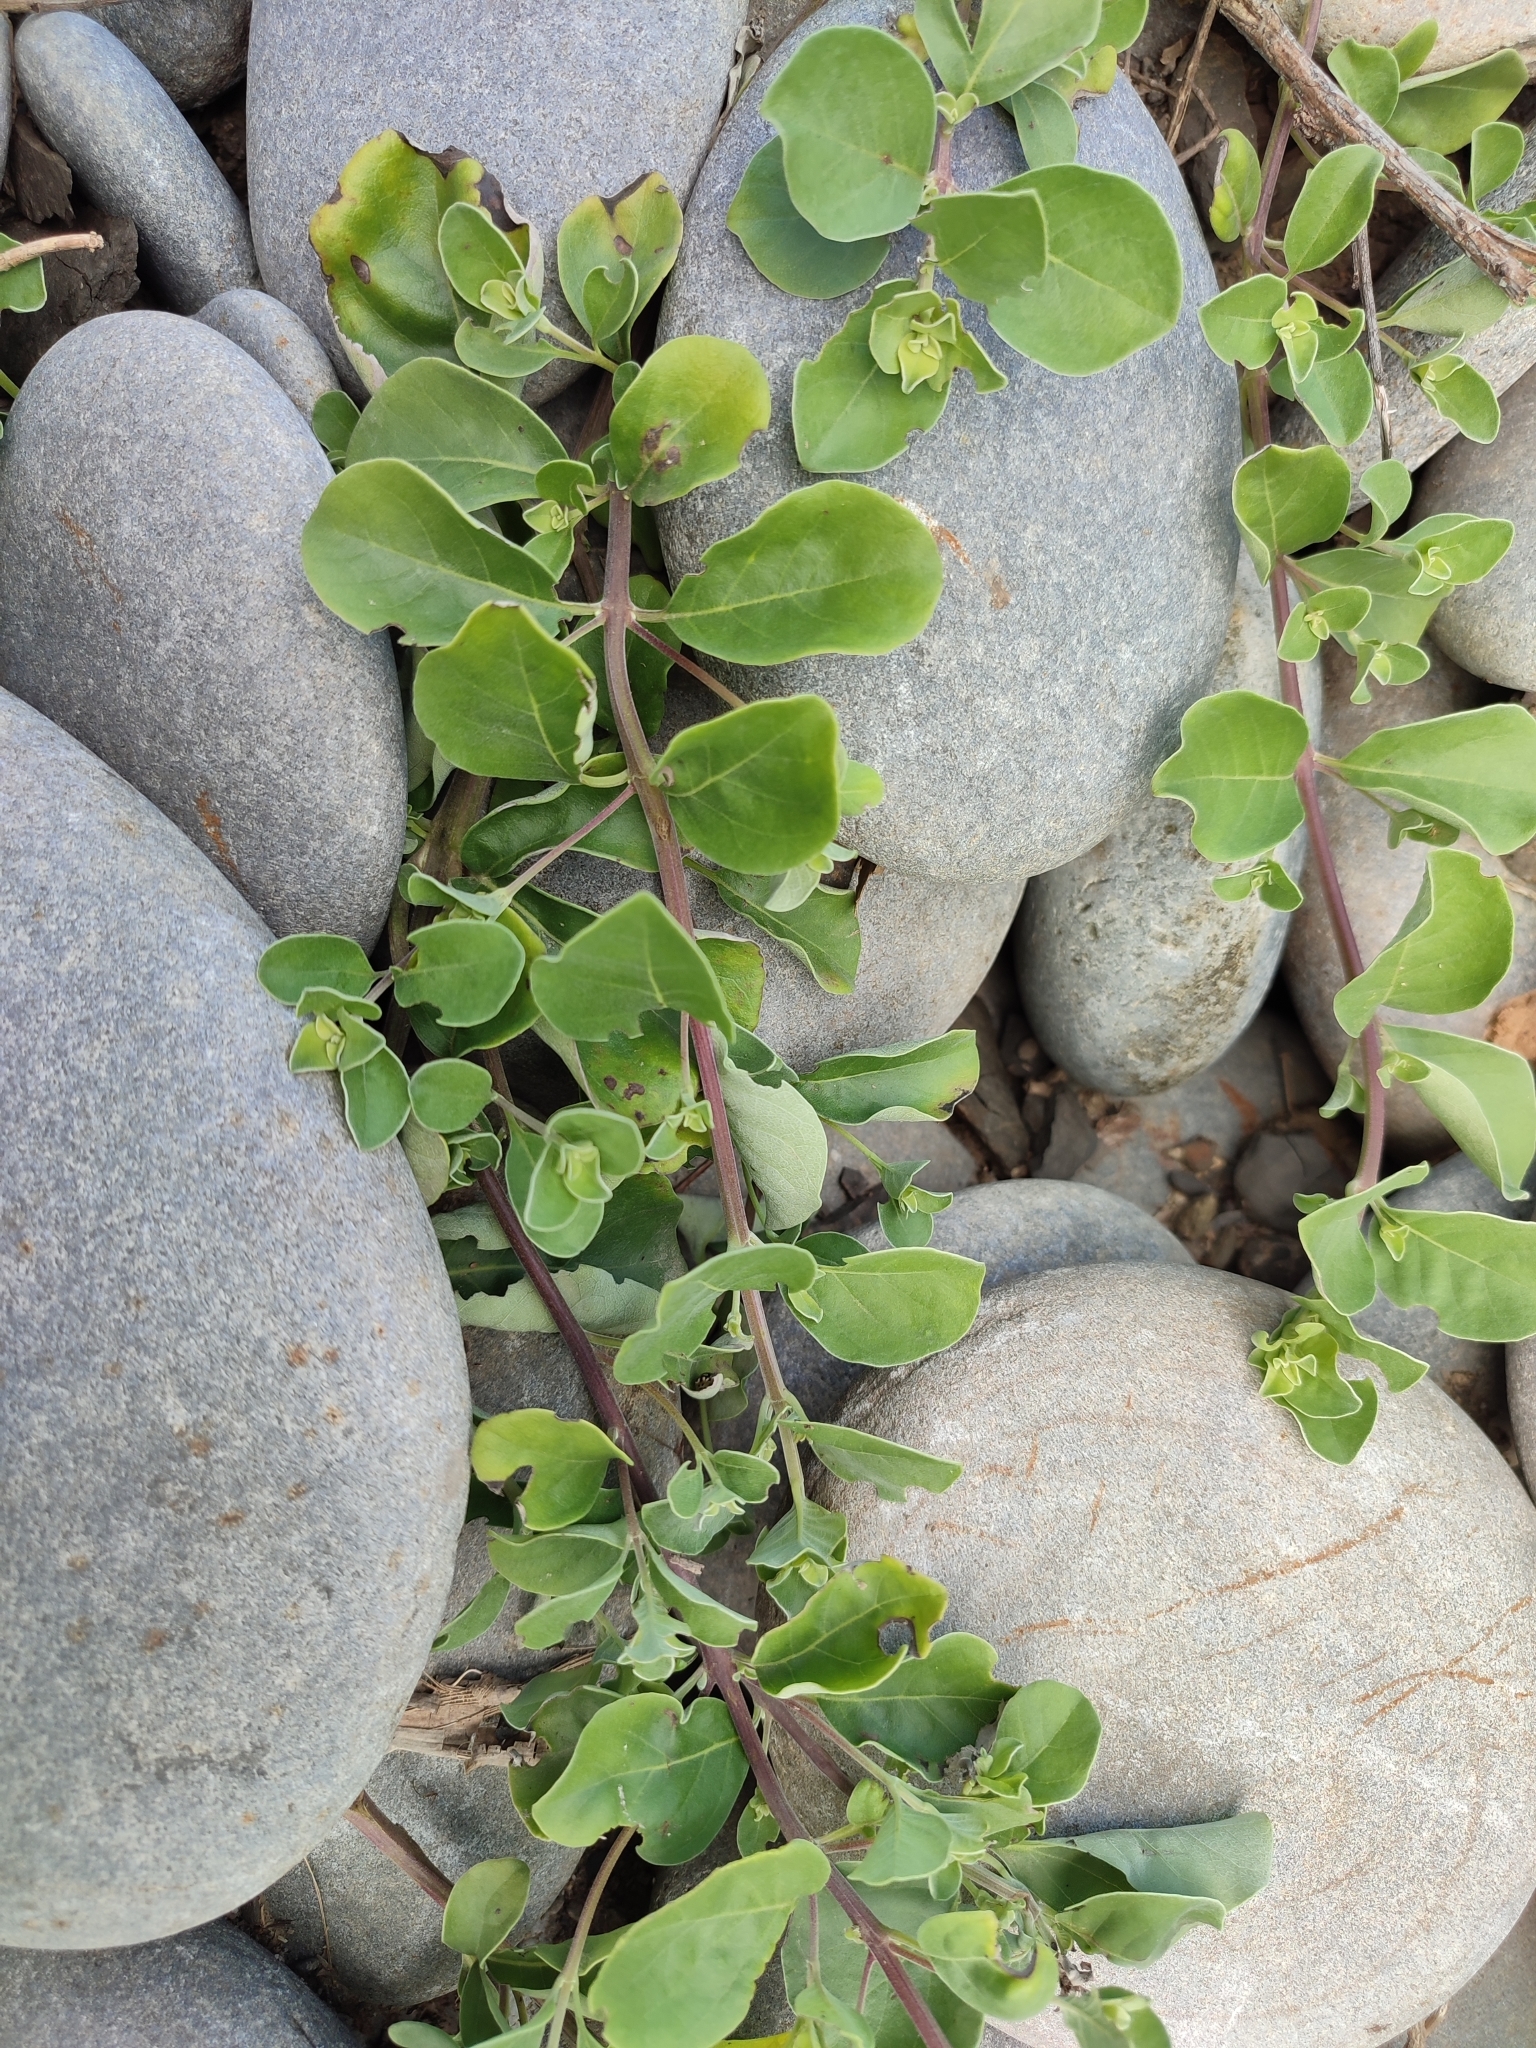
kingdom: Plantae
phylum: Tracheophyta
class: Magnoliopsida
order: Lamiales
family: Lamiaceae
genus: Vitex
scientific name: Vitex negundo
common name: Chinese chastetree
